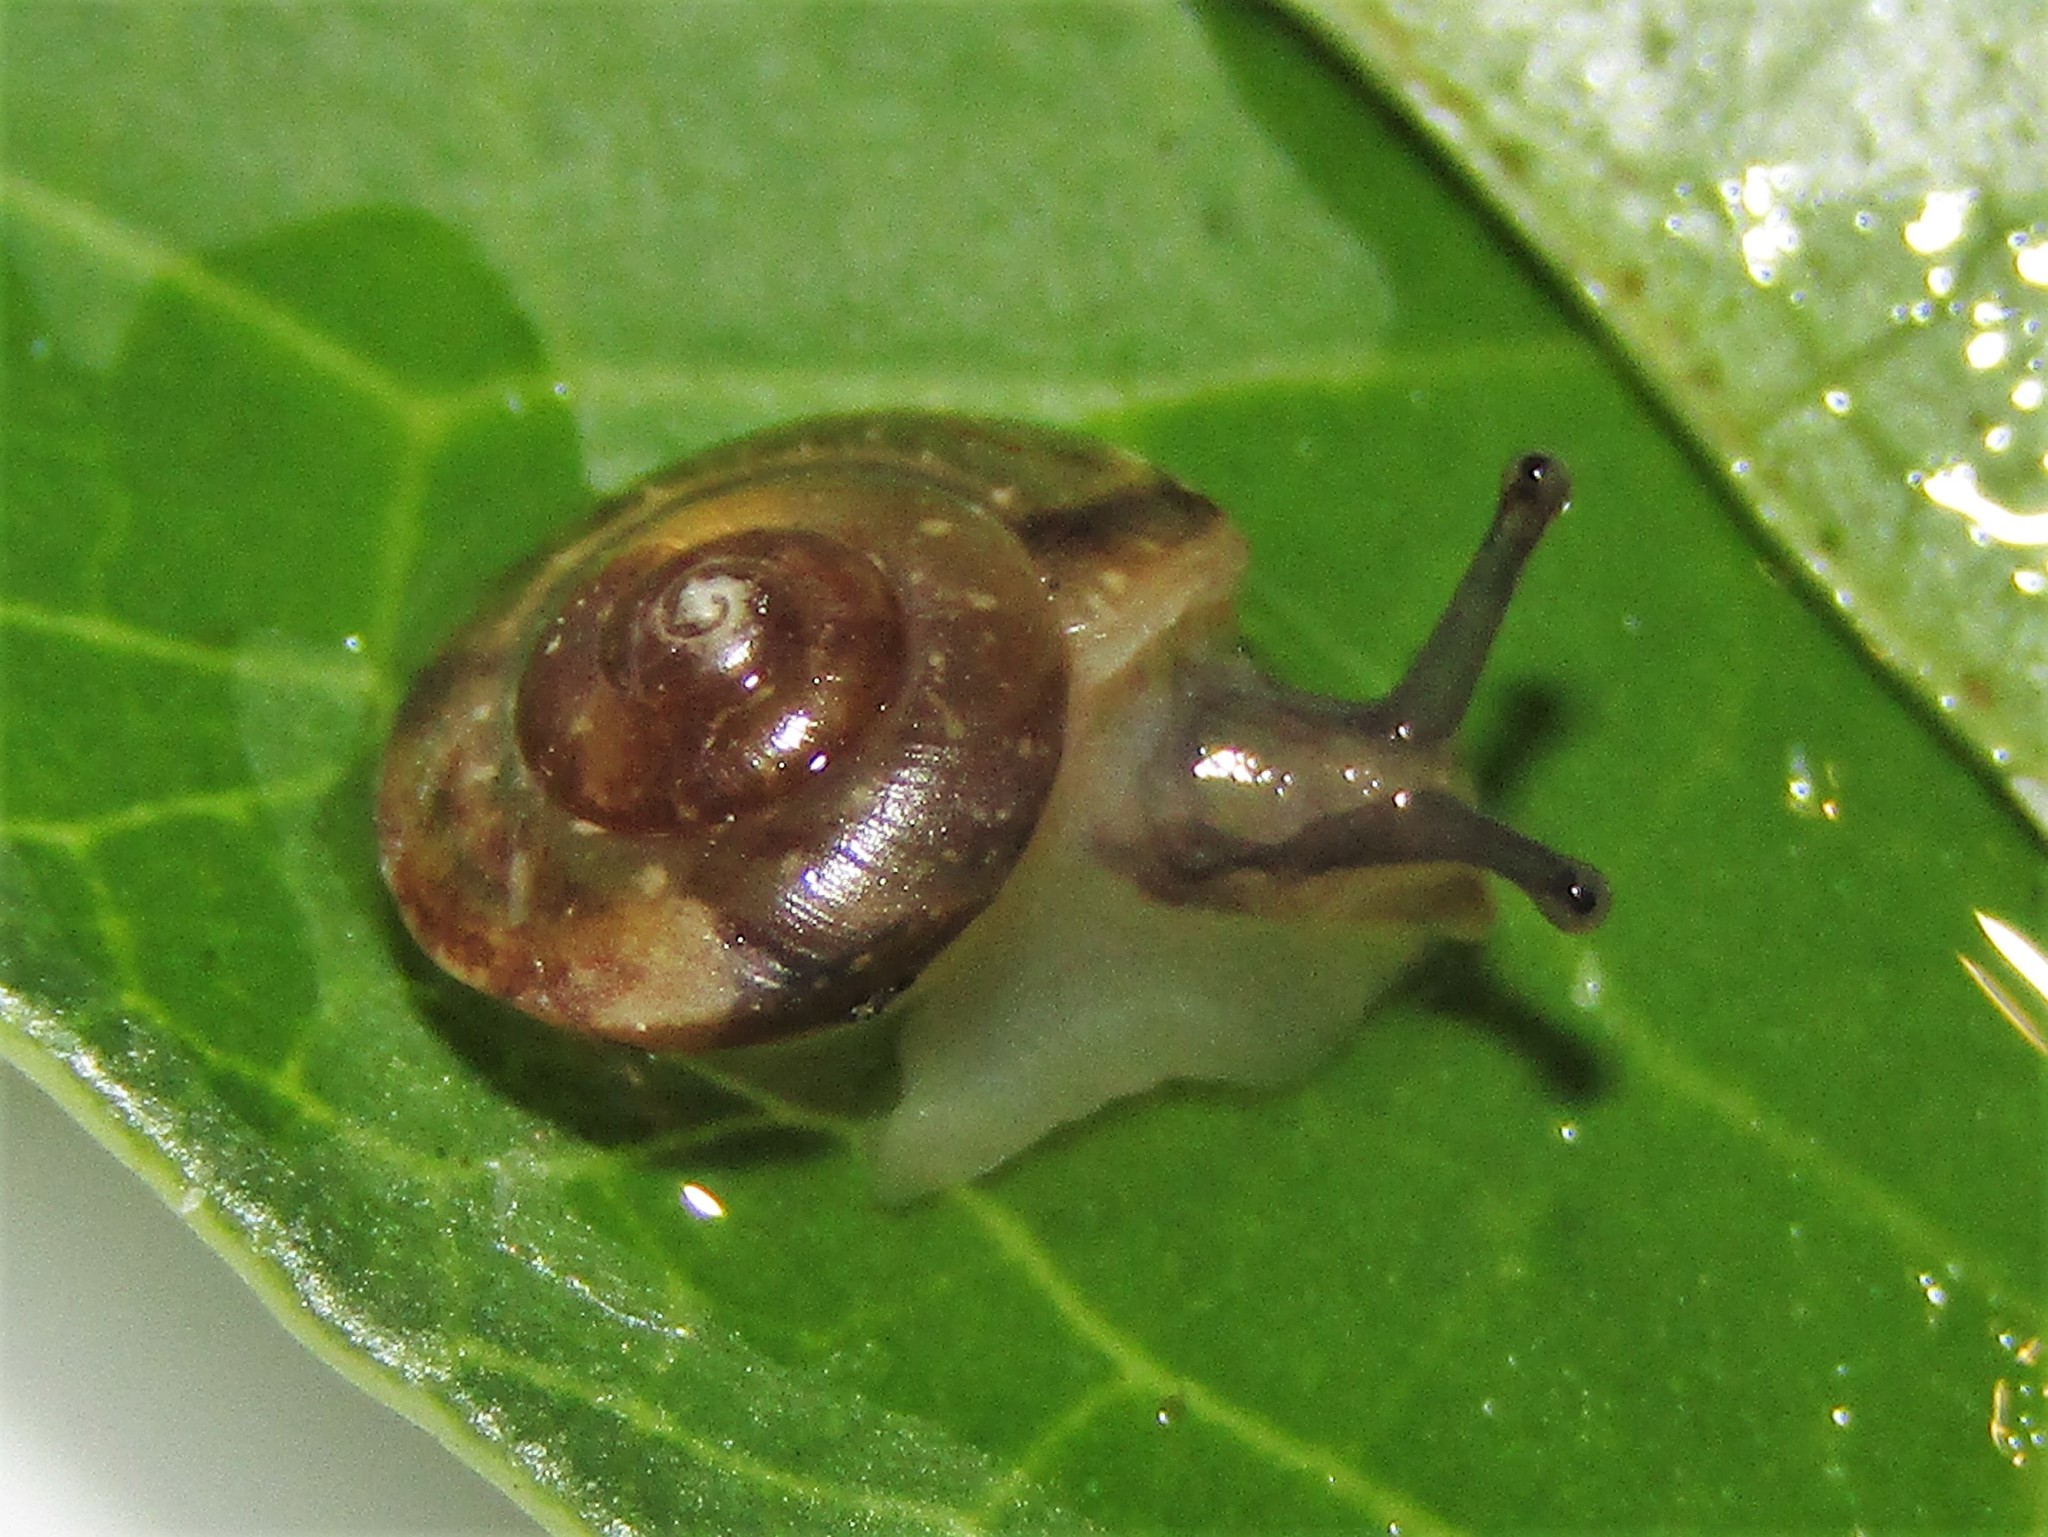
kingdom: Animalia
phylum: Mollusca
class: Gastropoda
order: Stylommatophora
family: Hygromiidae
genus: Hygromia
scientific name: Hygromia cinctella
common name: Girdled snail
